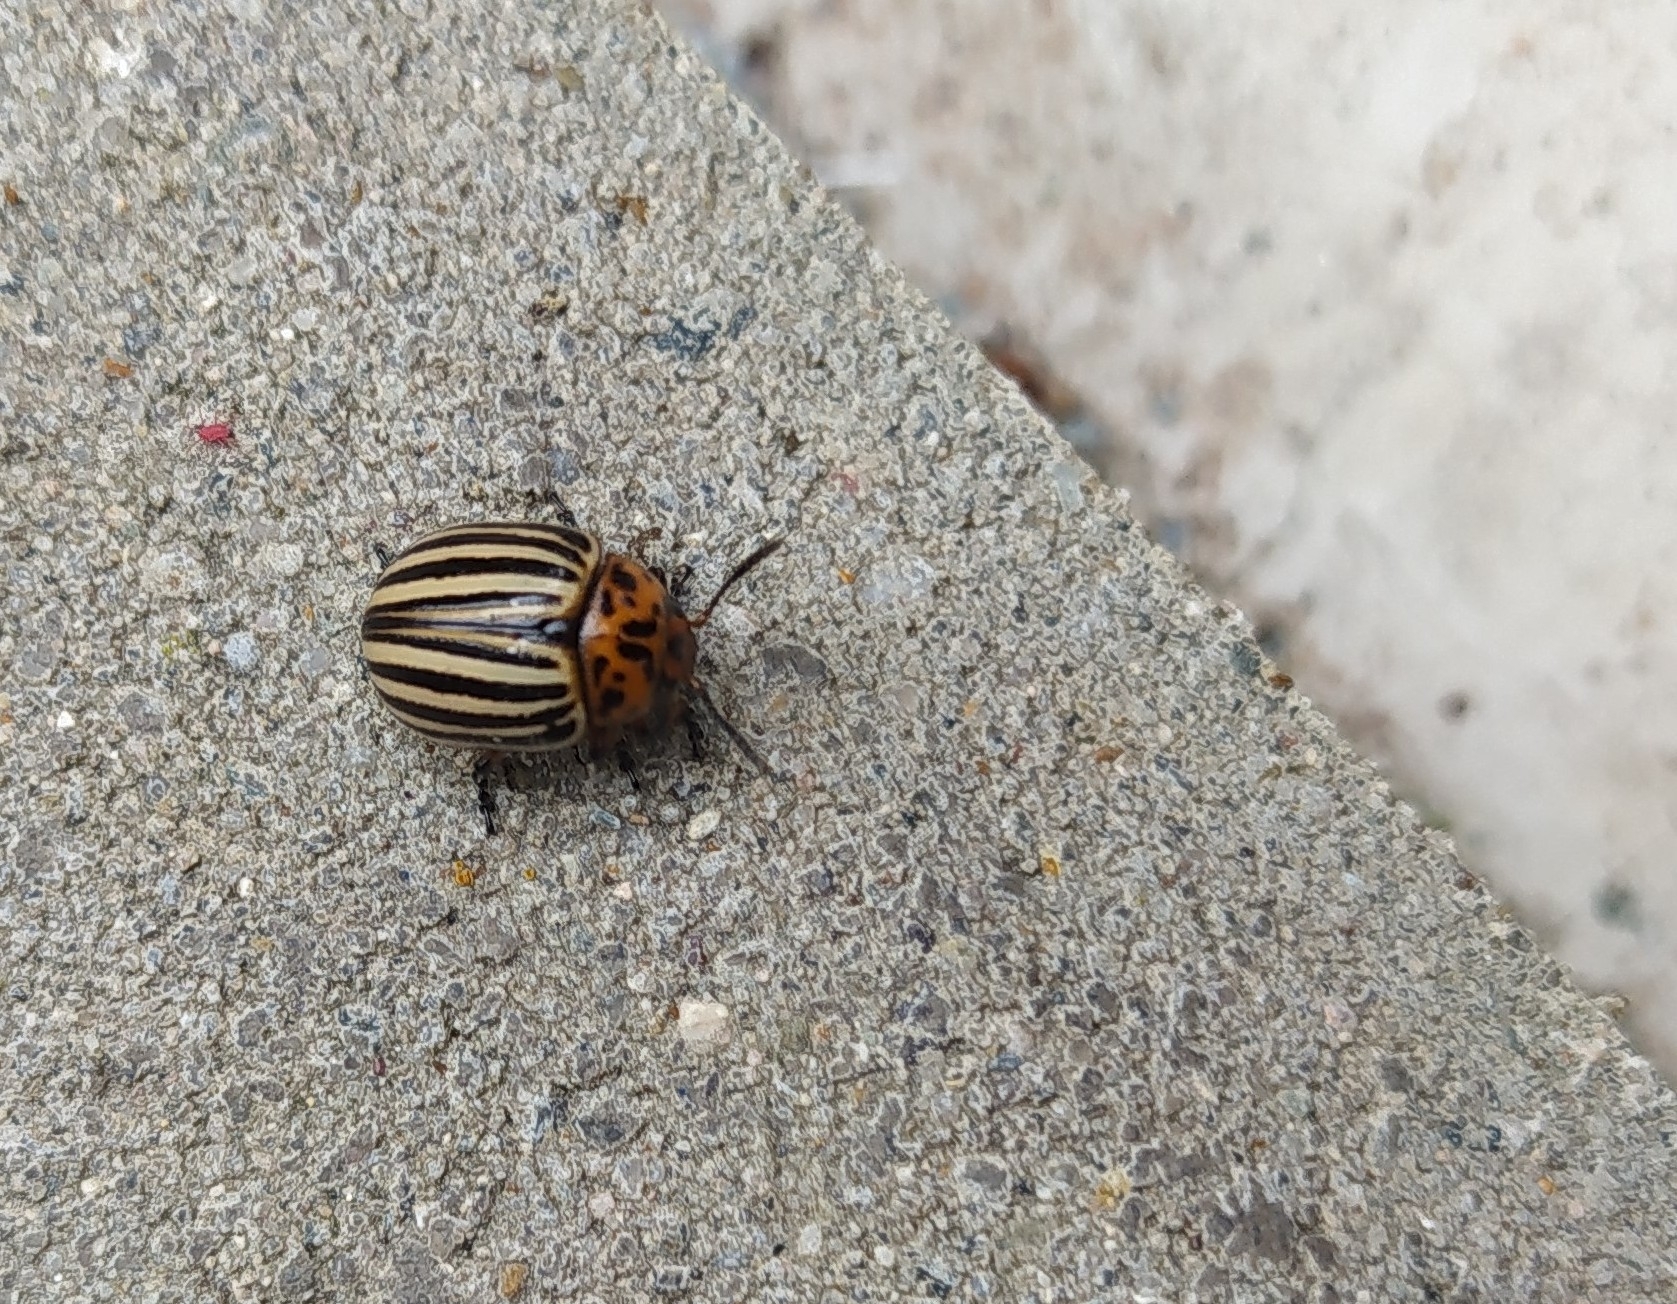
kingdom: Animalia
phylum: Arthropoda
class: Insecta
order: Coleoptera
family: Chrysomelidae
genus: Leptinotarsa
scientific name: Leptinotarsa decemlineata
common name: Colorado potato beetle
